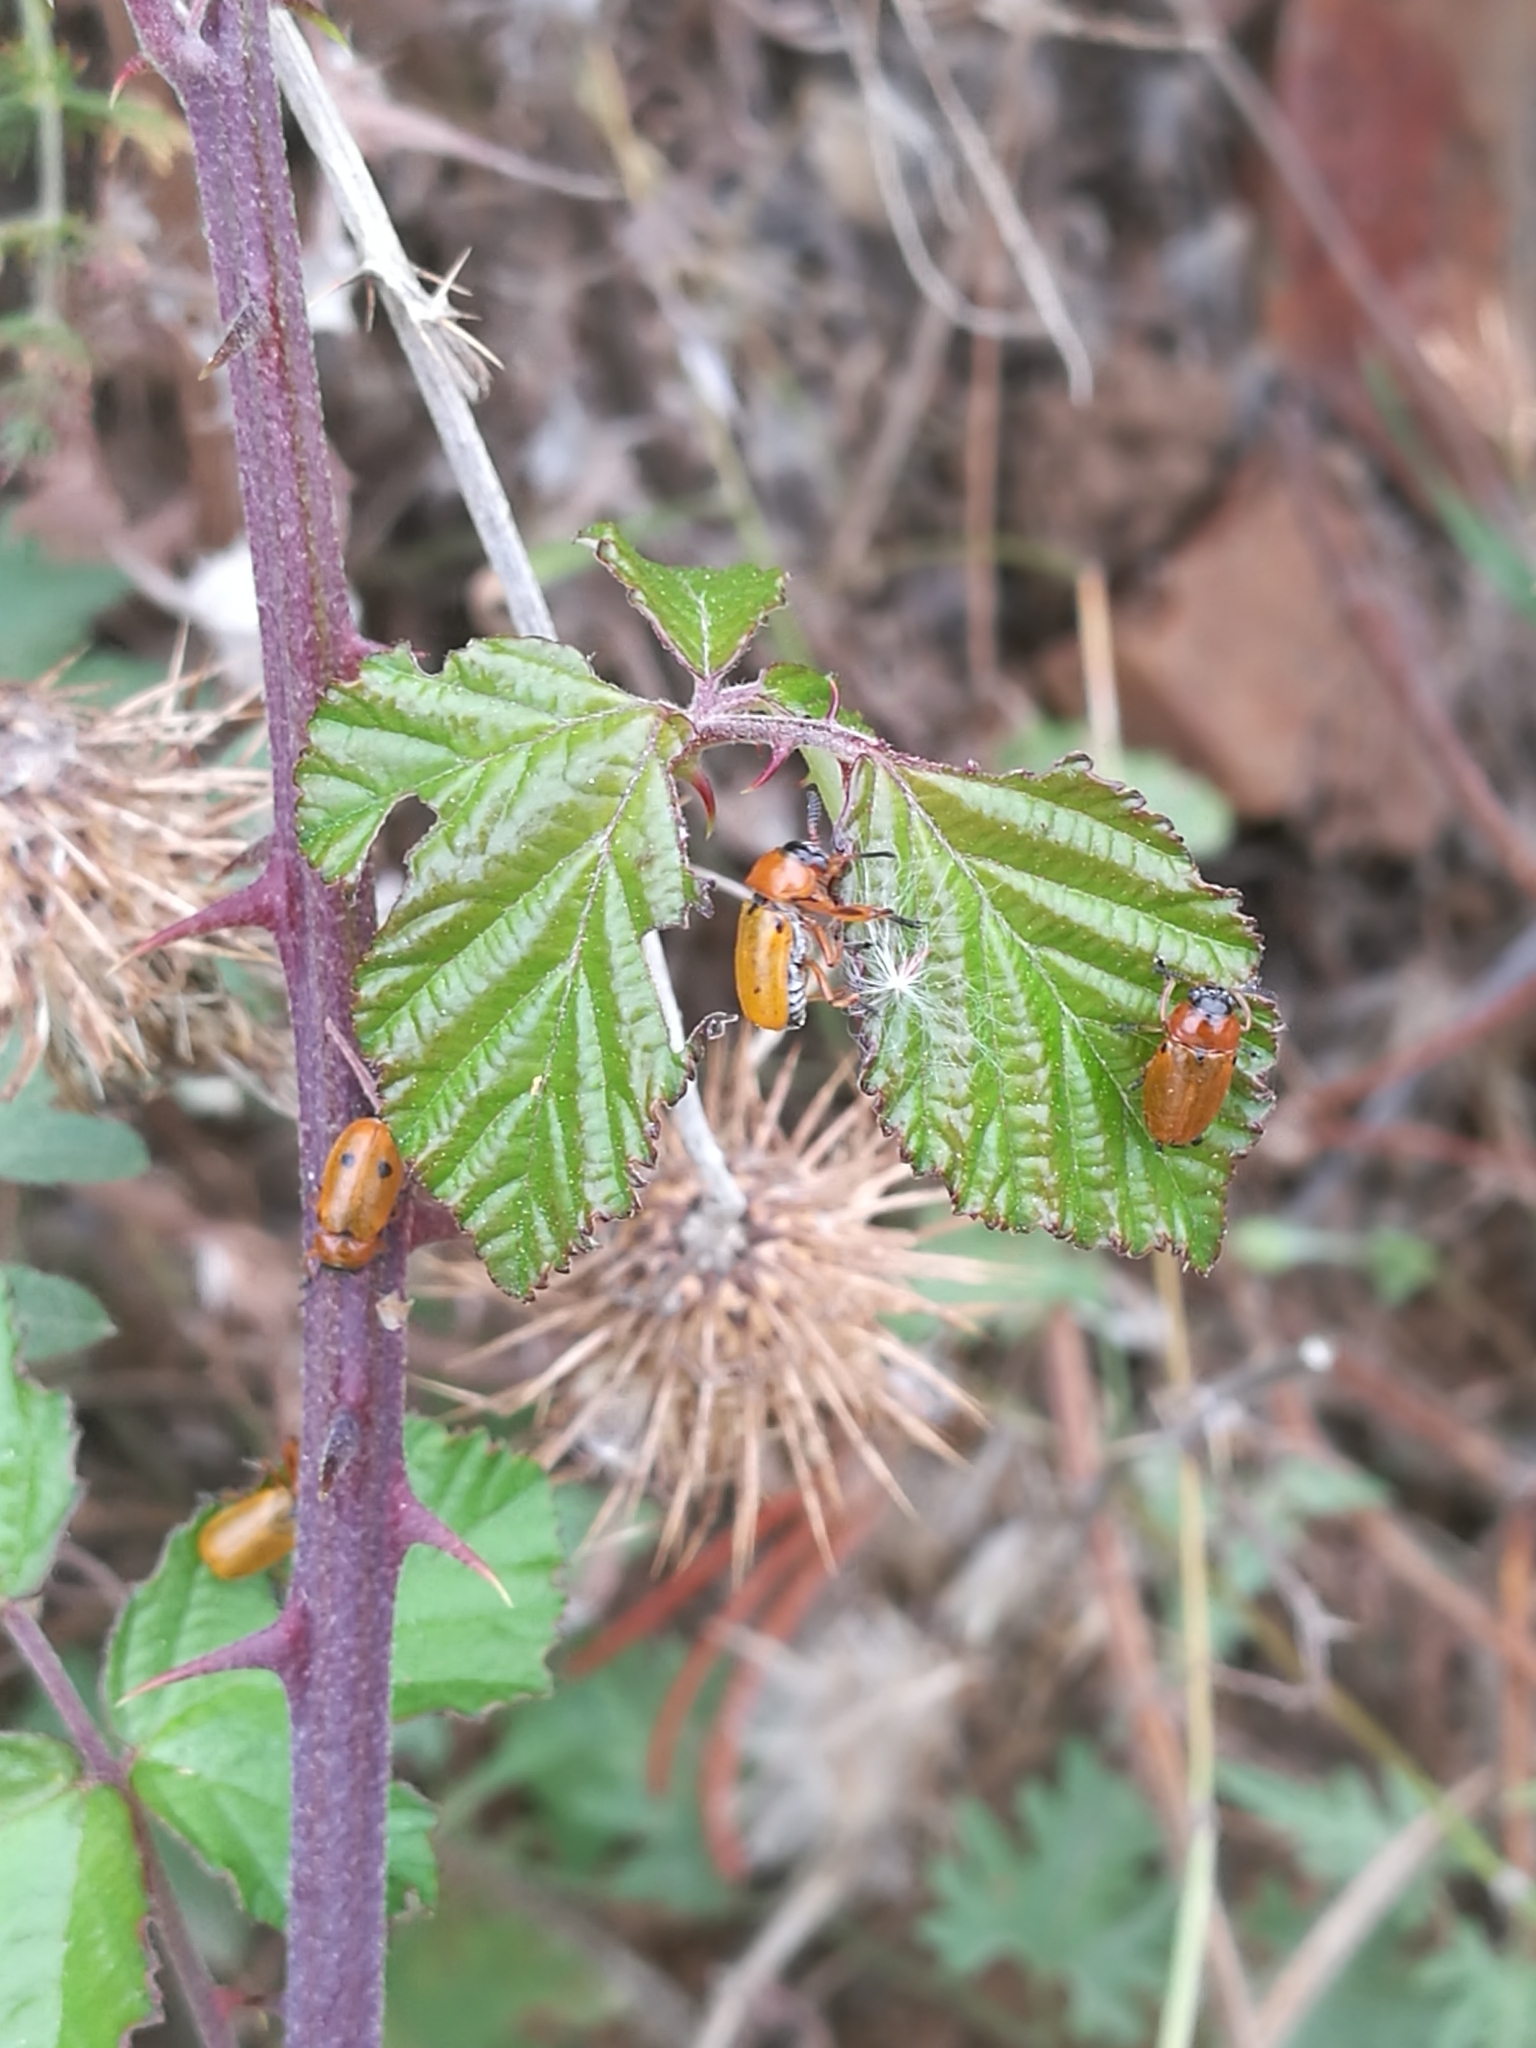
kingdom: Animalia
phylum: Arthropoda
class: Insecta
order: Coleoptera
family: Chrysomelidae
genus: Macrolenes
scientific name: Macrolenes dentipes
